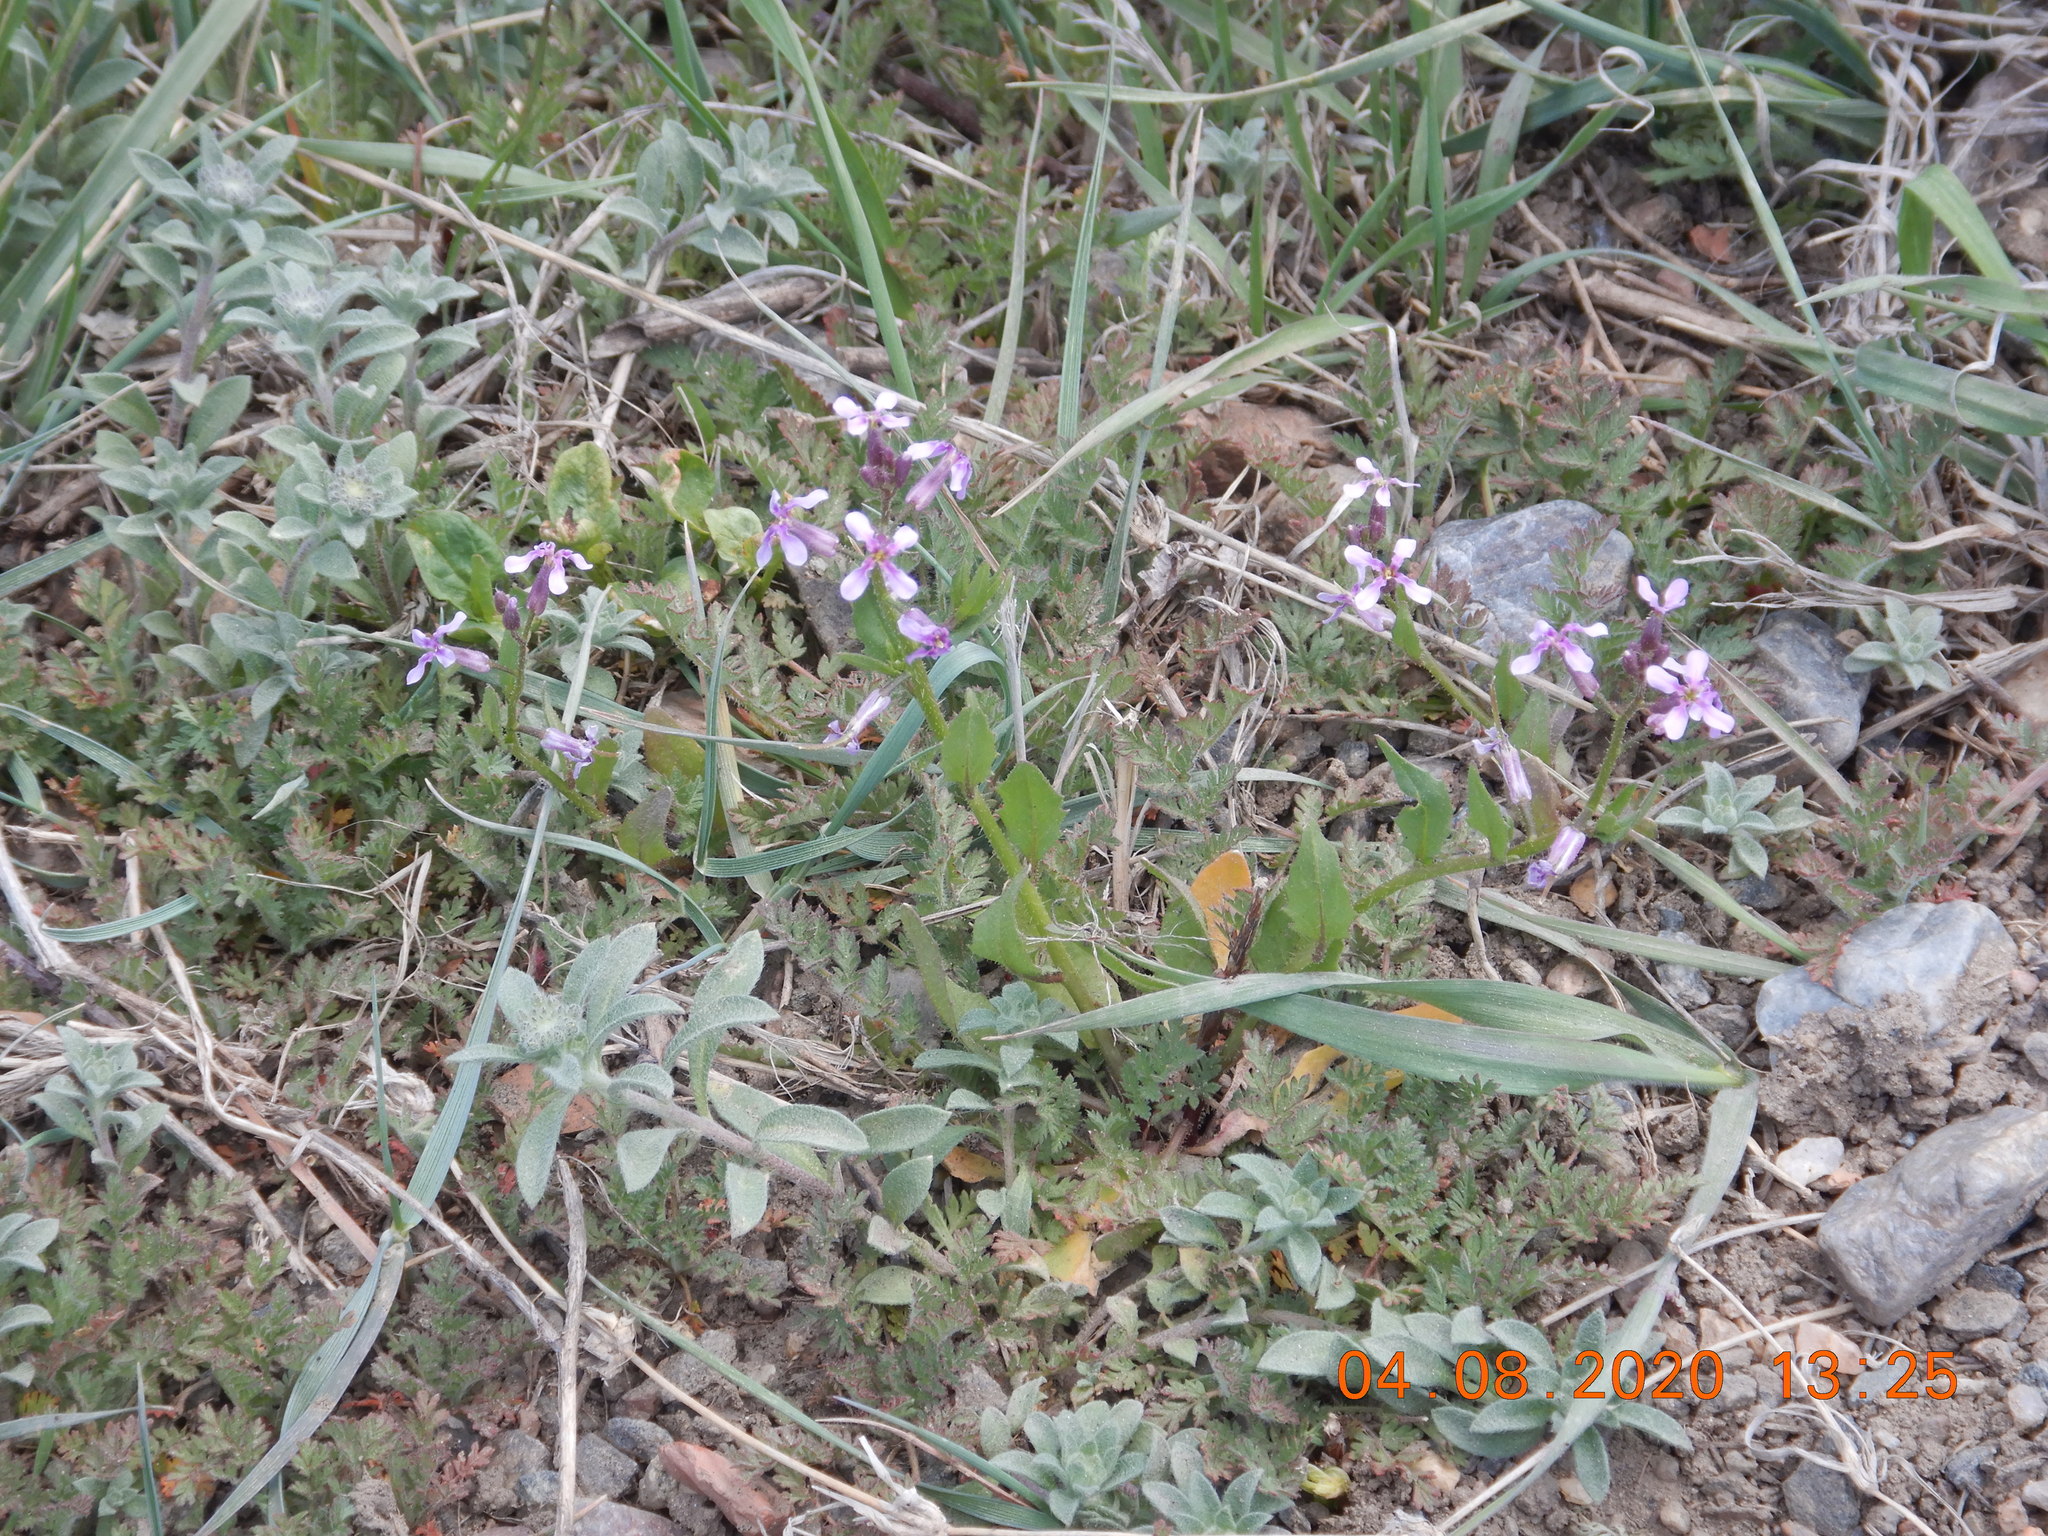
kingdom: Plantae
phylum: Tracheophyta
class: Magnoliopsida
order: Brassicales
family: Brassicaceae
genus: Chorispora
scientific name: Chorispora tenella
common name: Crossflower
